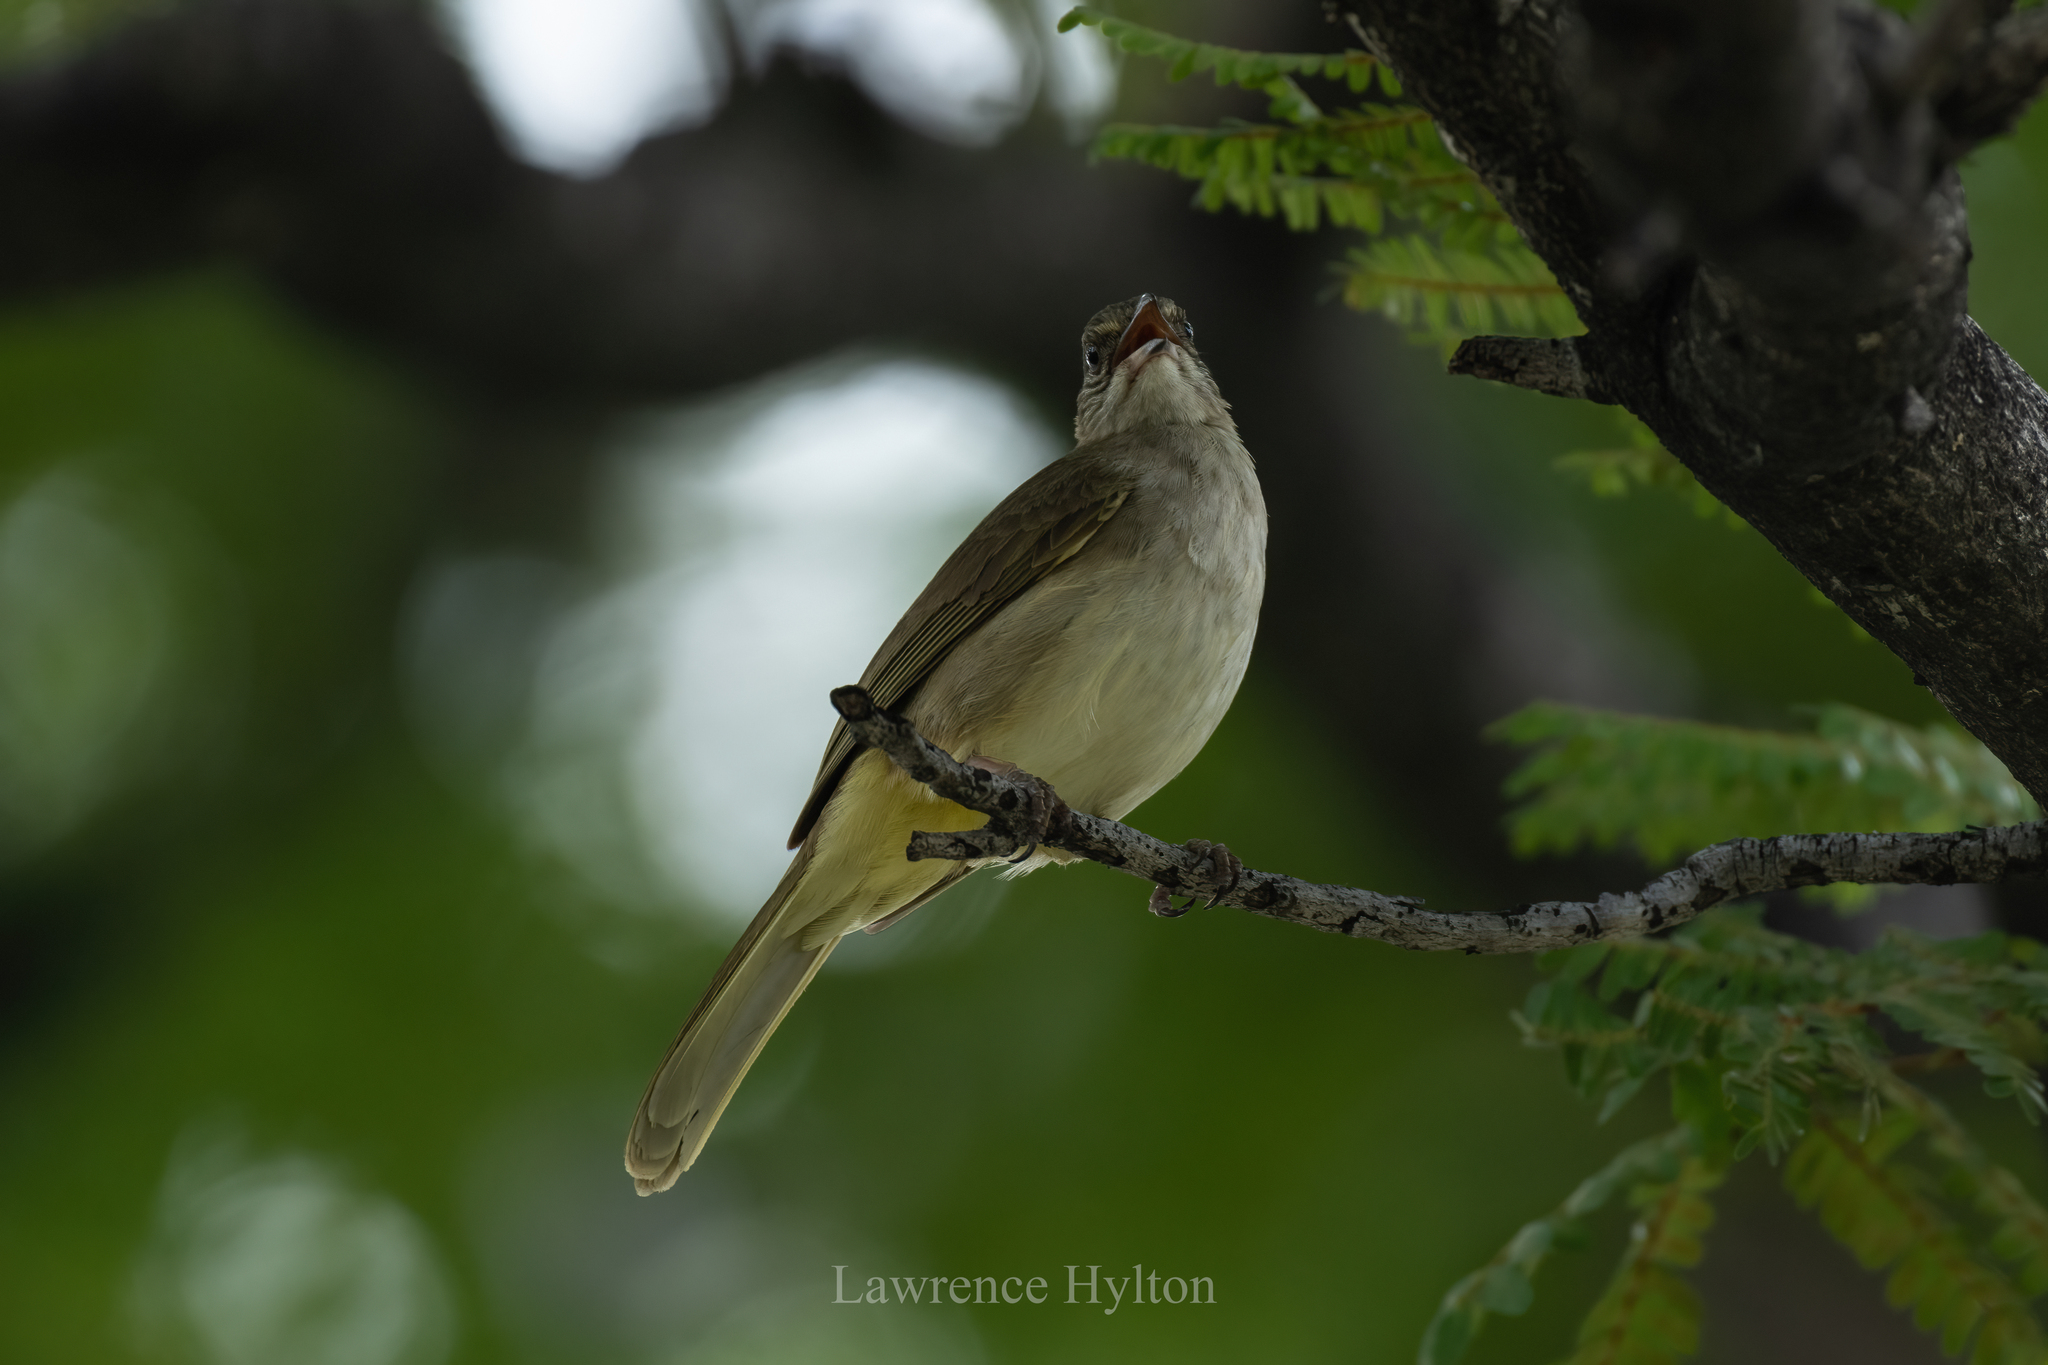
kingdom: Animalia
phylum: Chordata
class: Aves
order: Passeriformes
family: Pycnonotidae
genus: Pycnonotus
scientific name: Pycnonotus blanfordi
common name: Streak-eared bulbul
